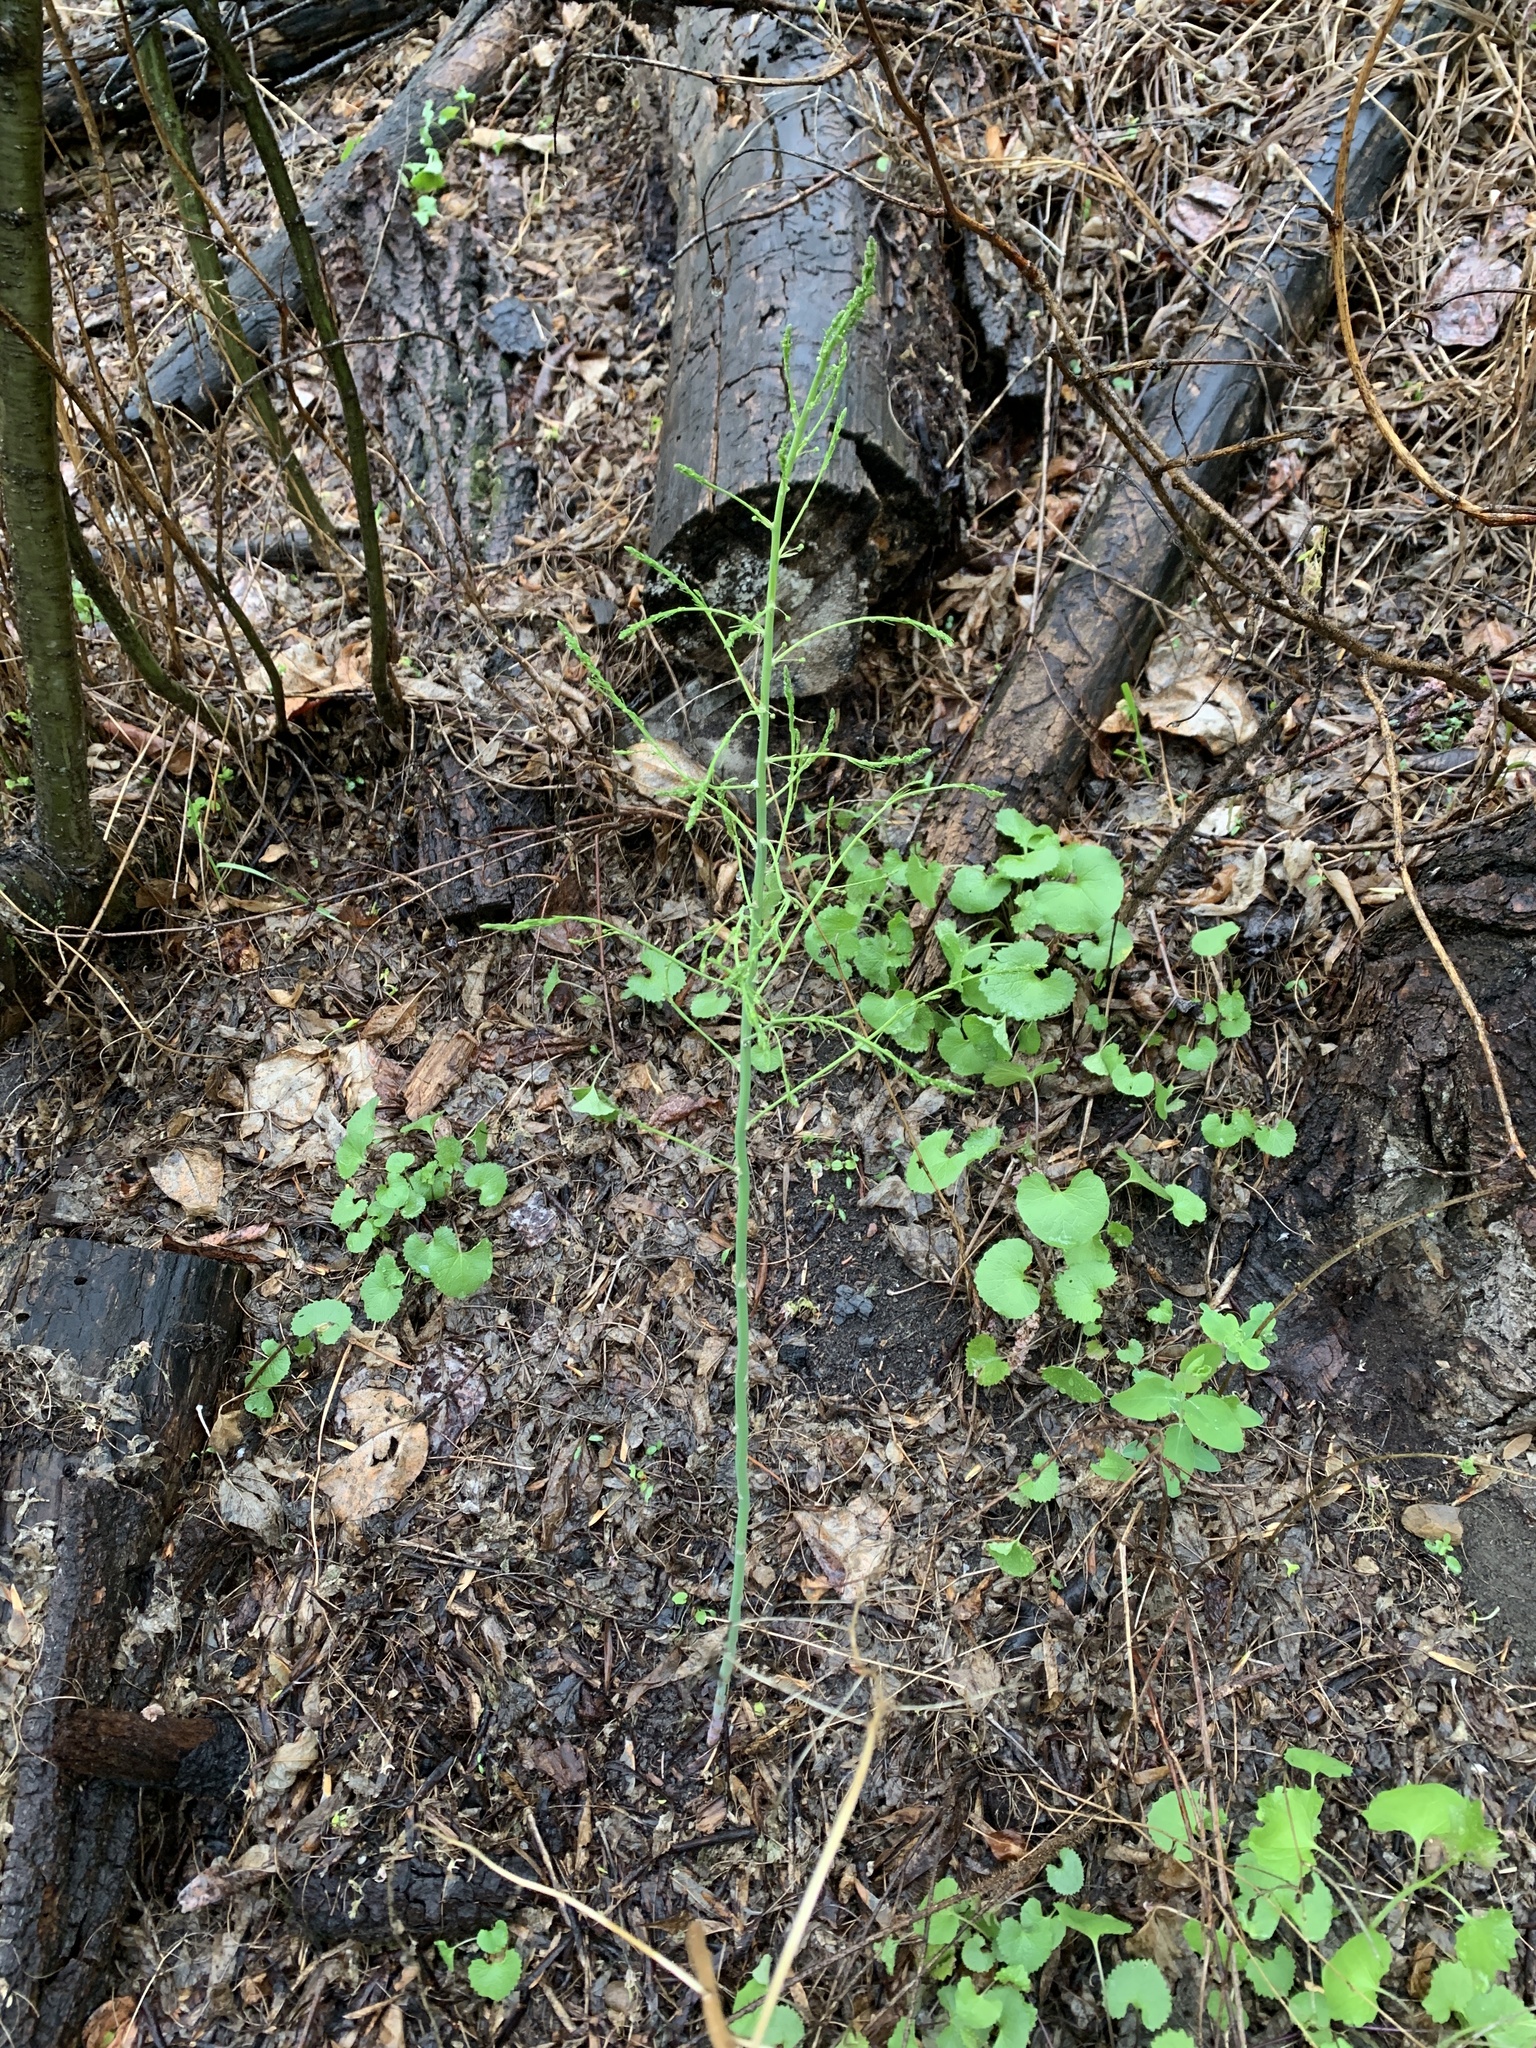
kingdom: Plantae
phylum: Tracheophyta
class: Liliopsida
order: Asparagales
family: Asparagaceae
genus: Asparagus
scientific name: Asparagus officinalis
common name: Garden asparagus
